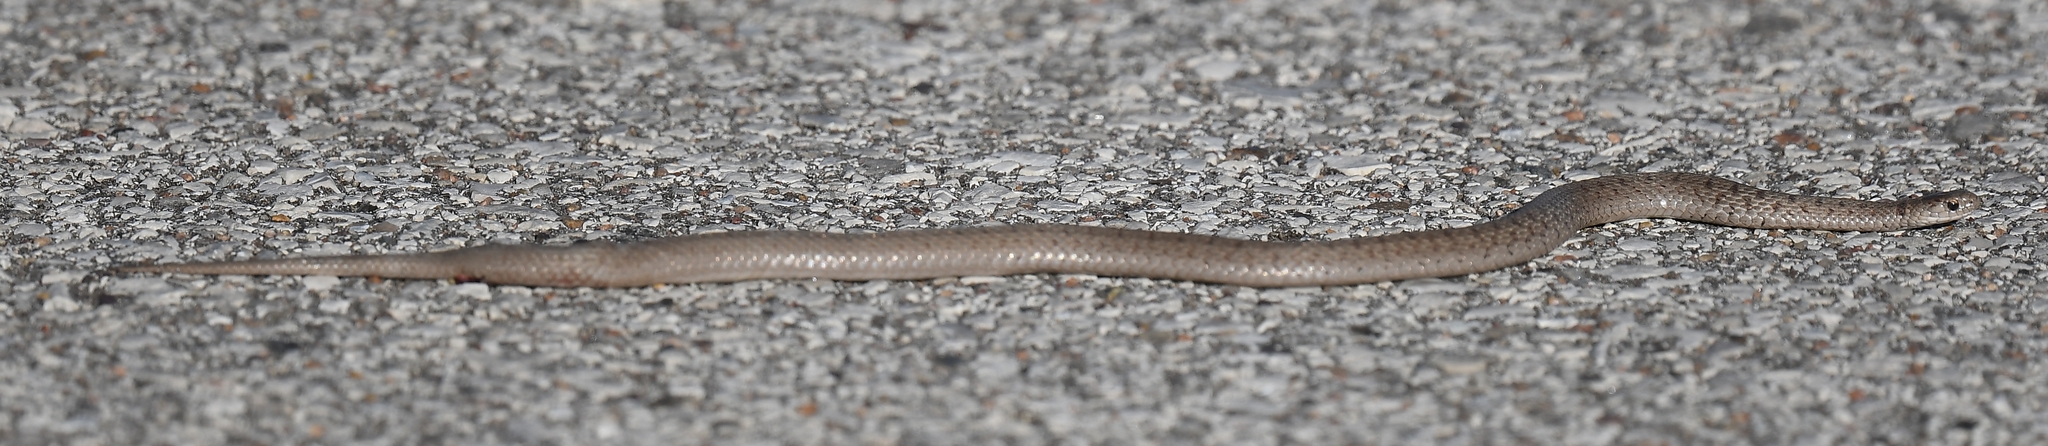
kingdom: Animalia
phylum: Chordata
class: Squamata
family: Colubridae
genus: Storeria
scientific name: Storeria dekayi
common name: (dekay’s) brown snake
